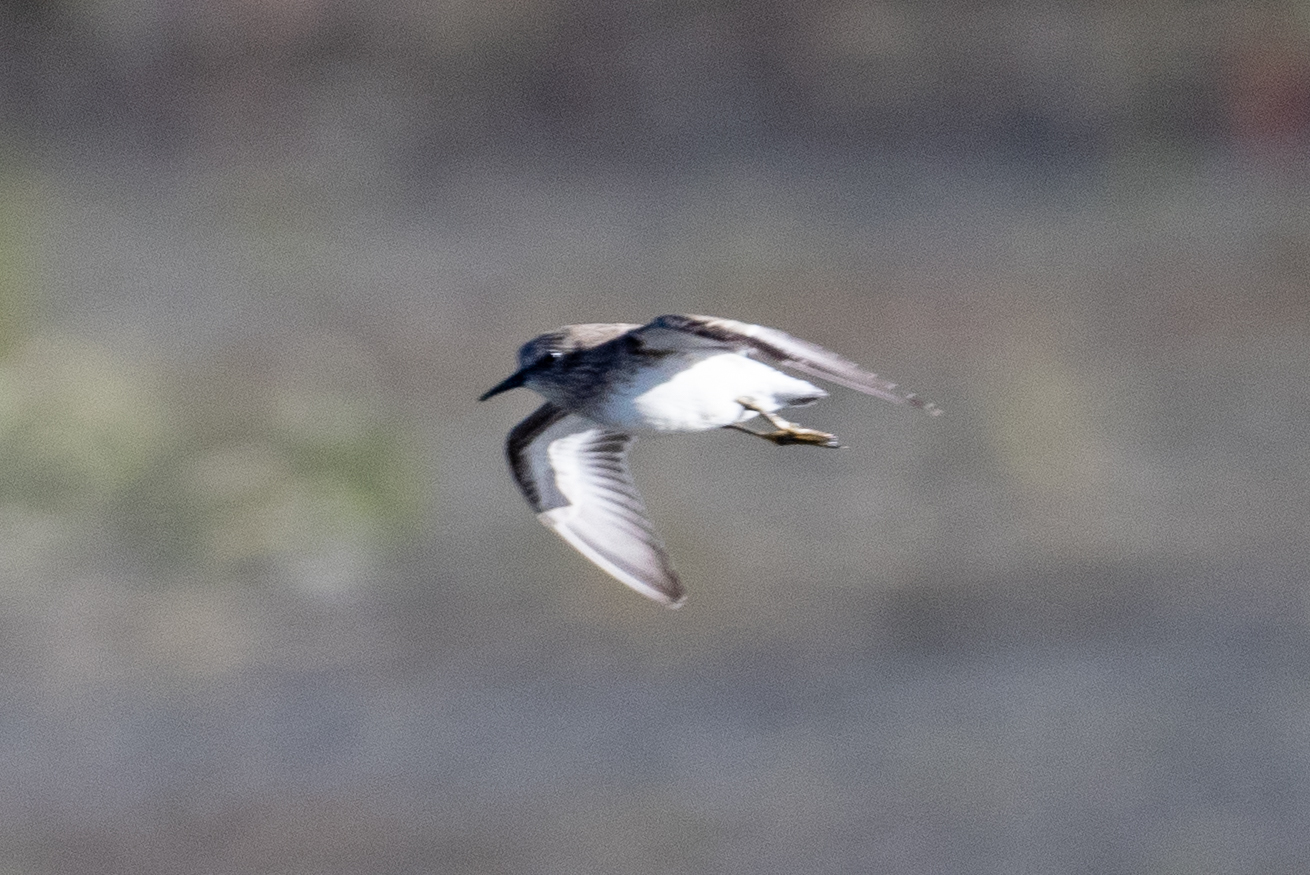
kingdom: Animalia
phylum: Chordata
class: Aves
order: Charadriiformes
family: Scolopacidae
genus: Calidris
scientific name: Calidris minutilla
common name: Least sandpiper
